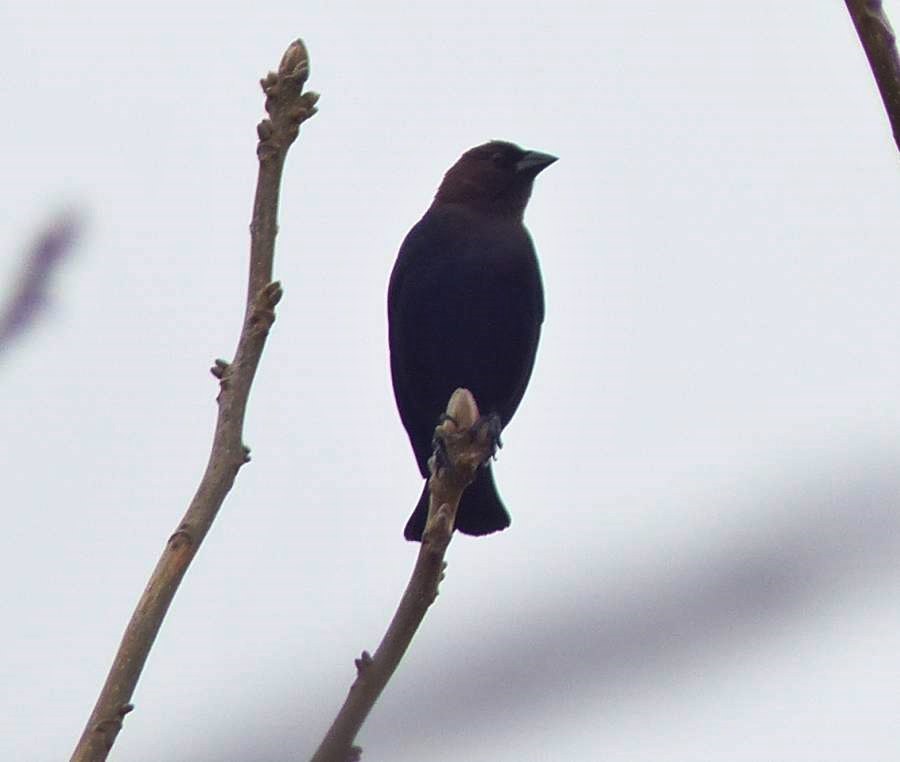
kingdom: Animalia
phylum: Chordata
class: Aves
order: Passeriformes
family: Icteridae
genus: Molothrus
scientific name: Molothrus ater
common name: Brown-headed cowbird
